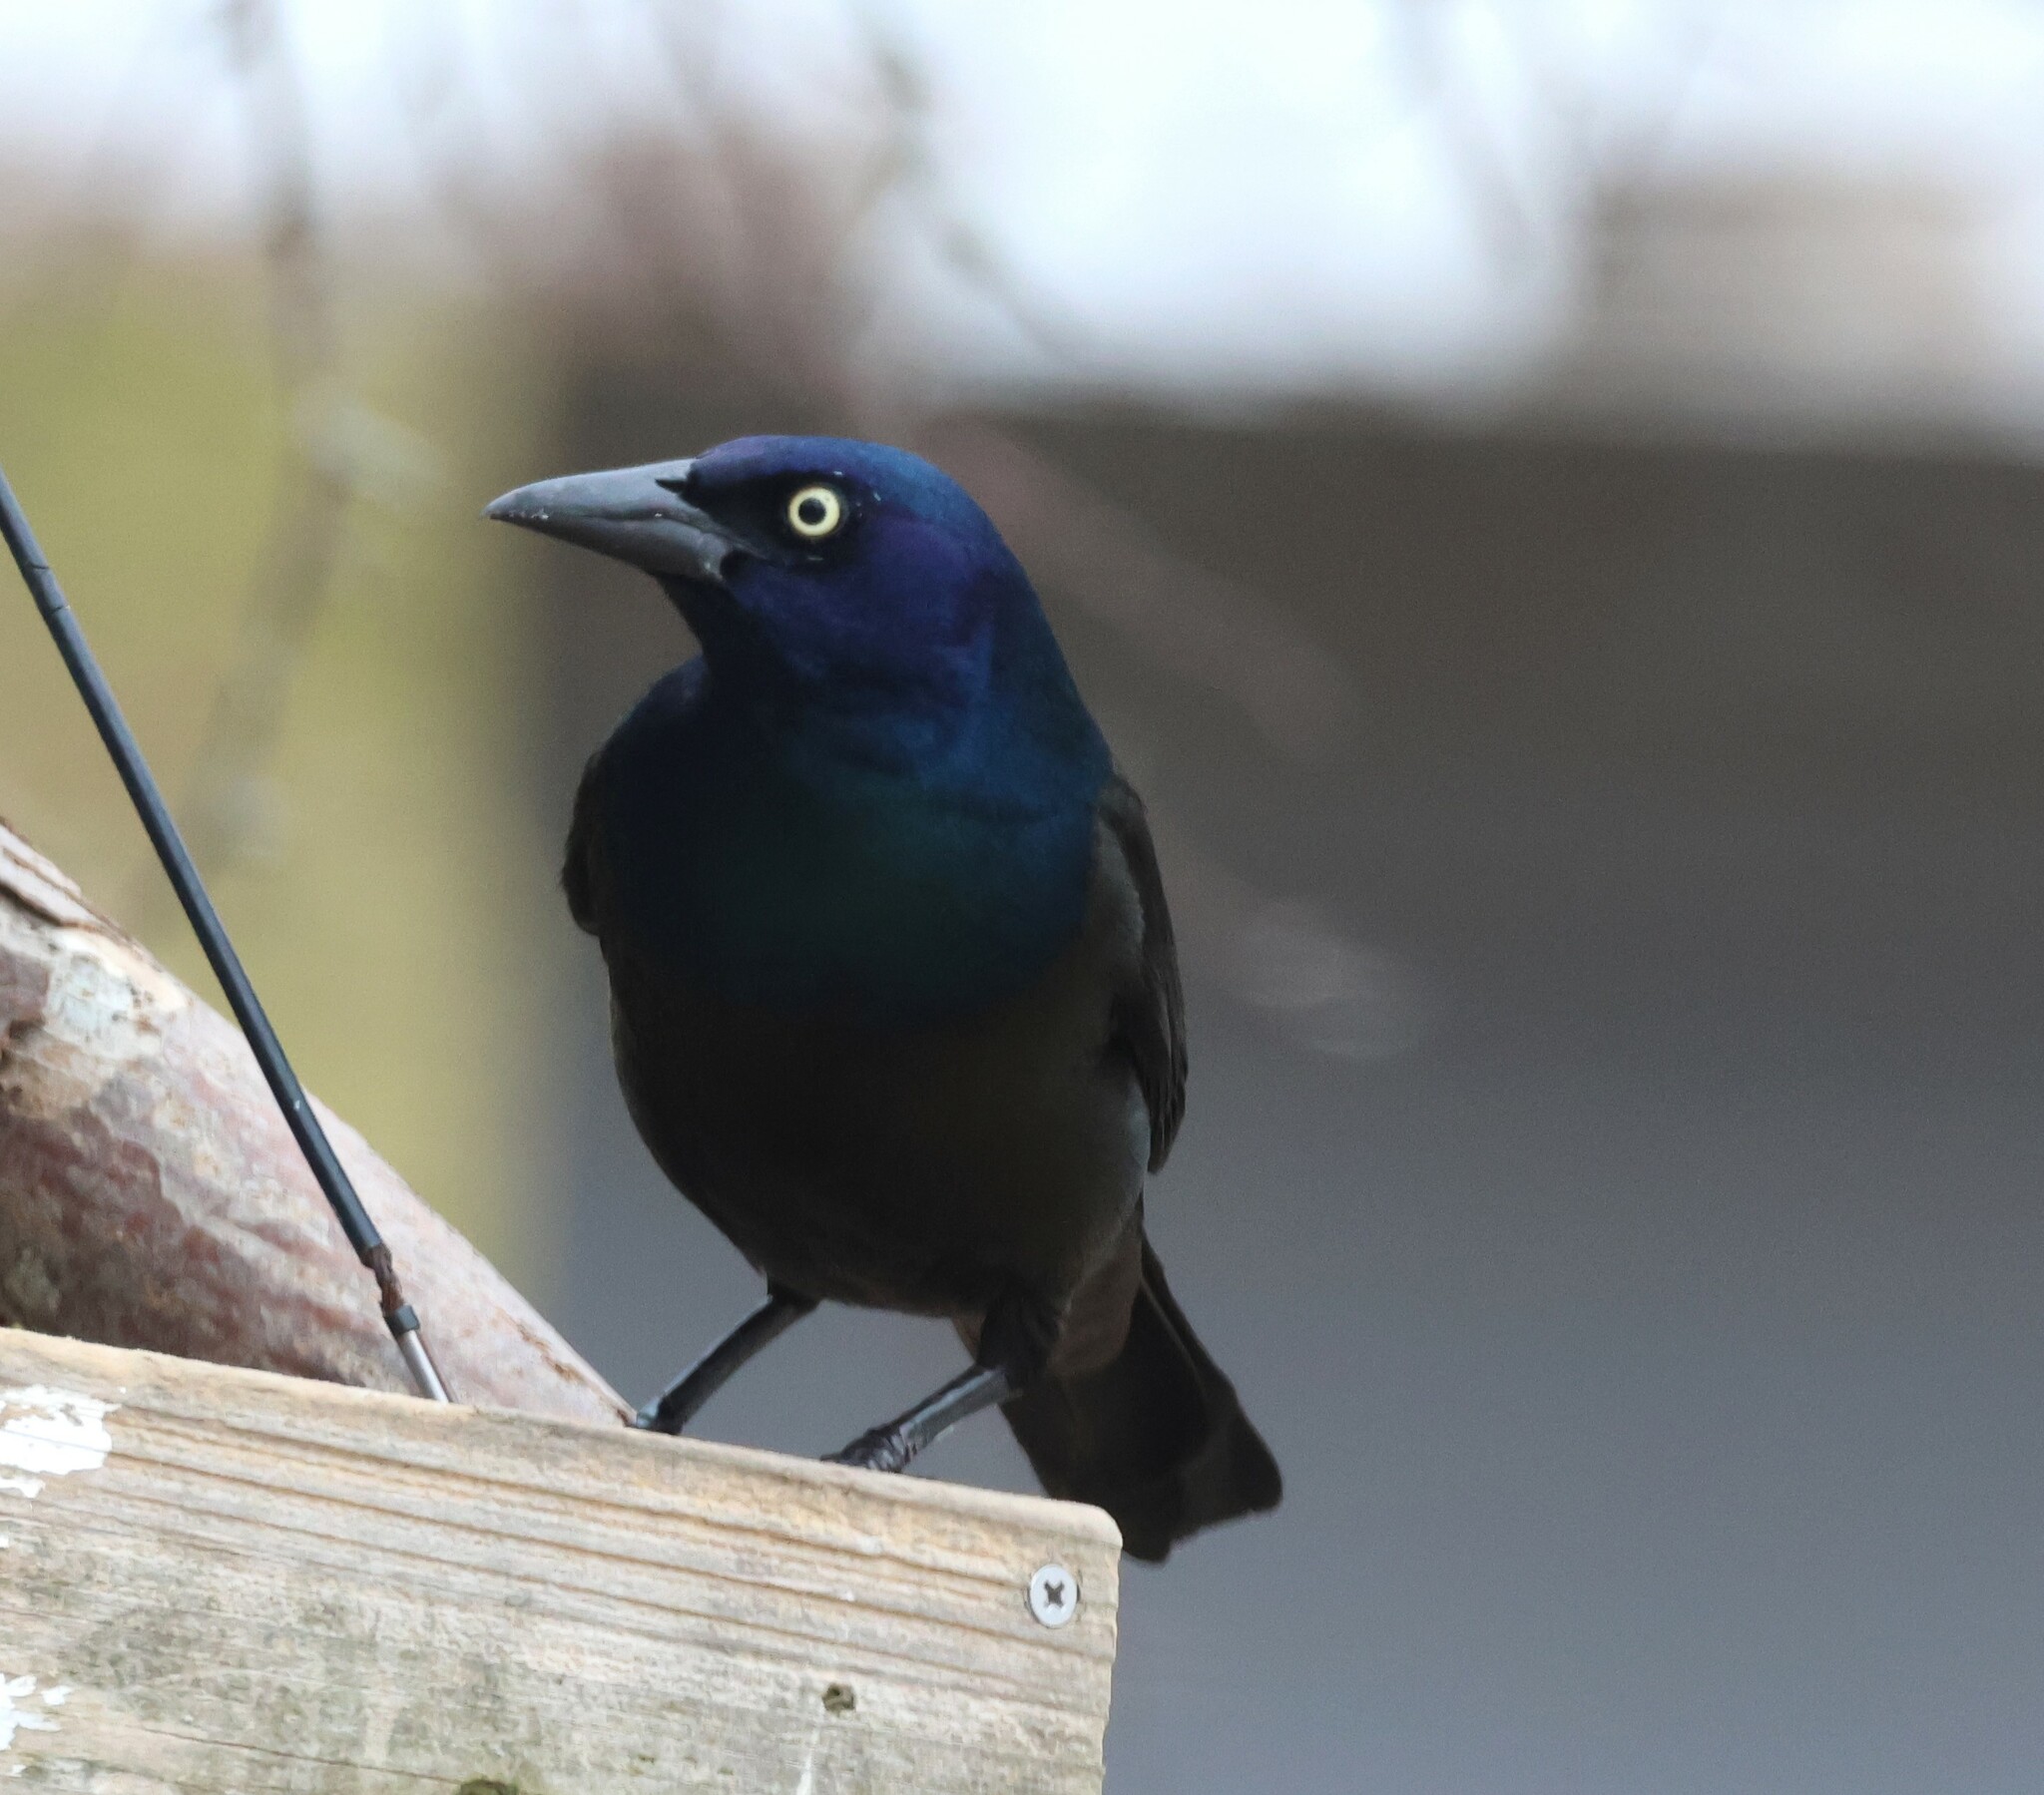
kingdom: Animalia
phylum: Chordata
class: Aves
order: Passeriformes
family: Icteridae
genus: Quiscalus
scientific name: Quiscalus quiscula
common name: Common grackle
